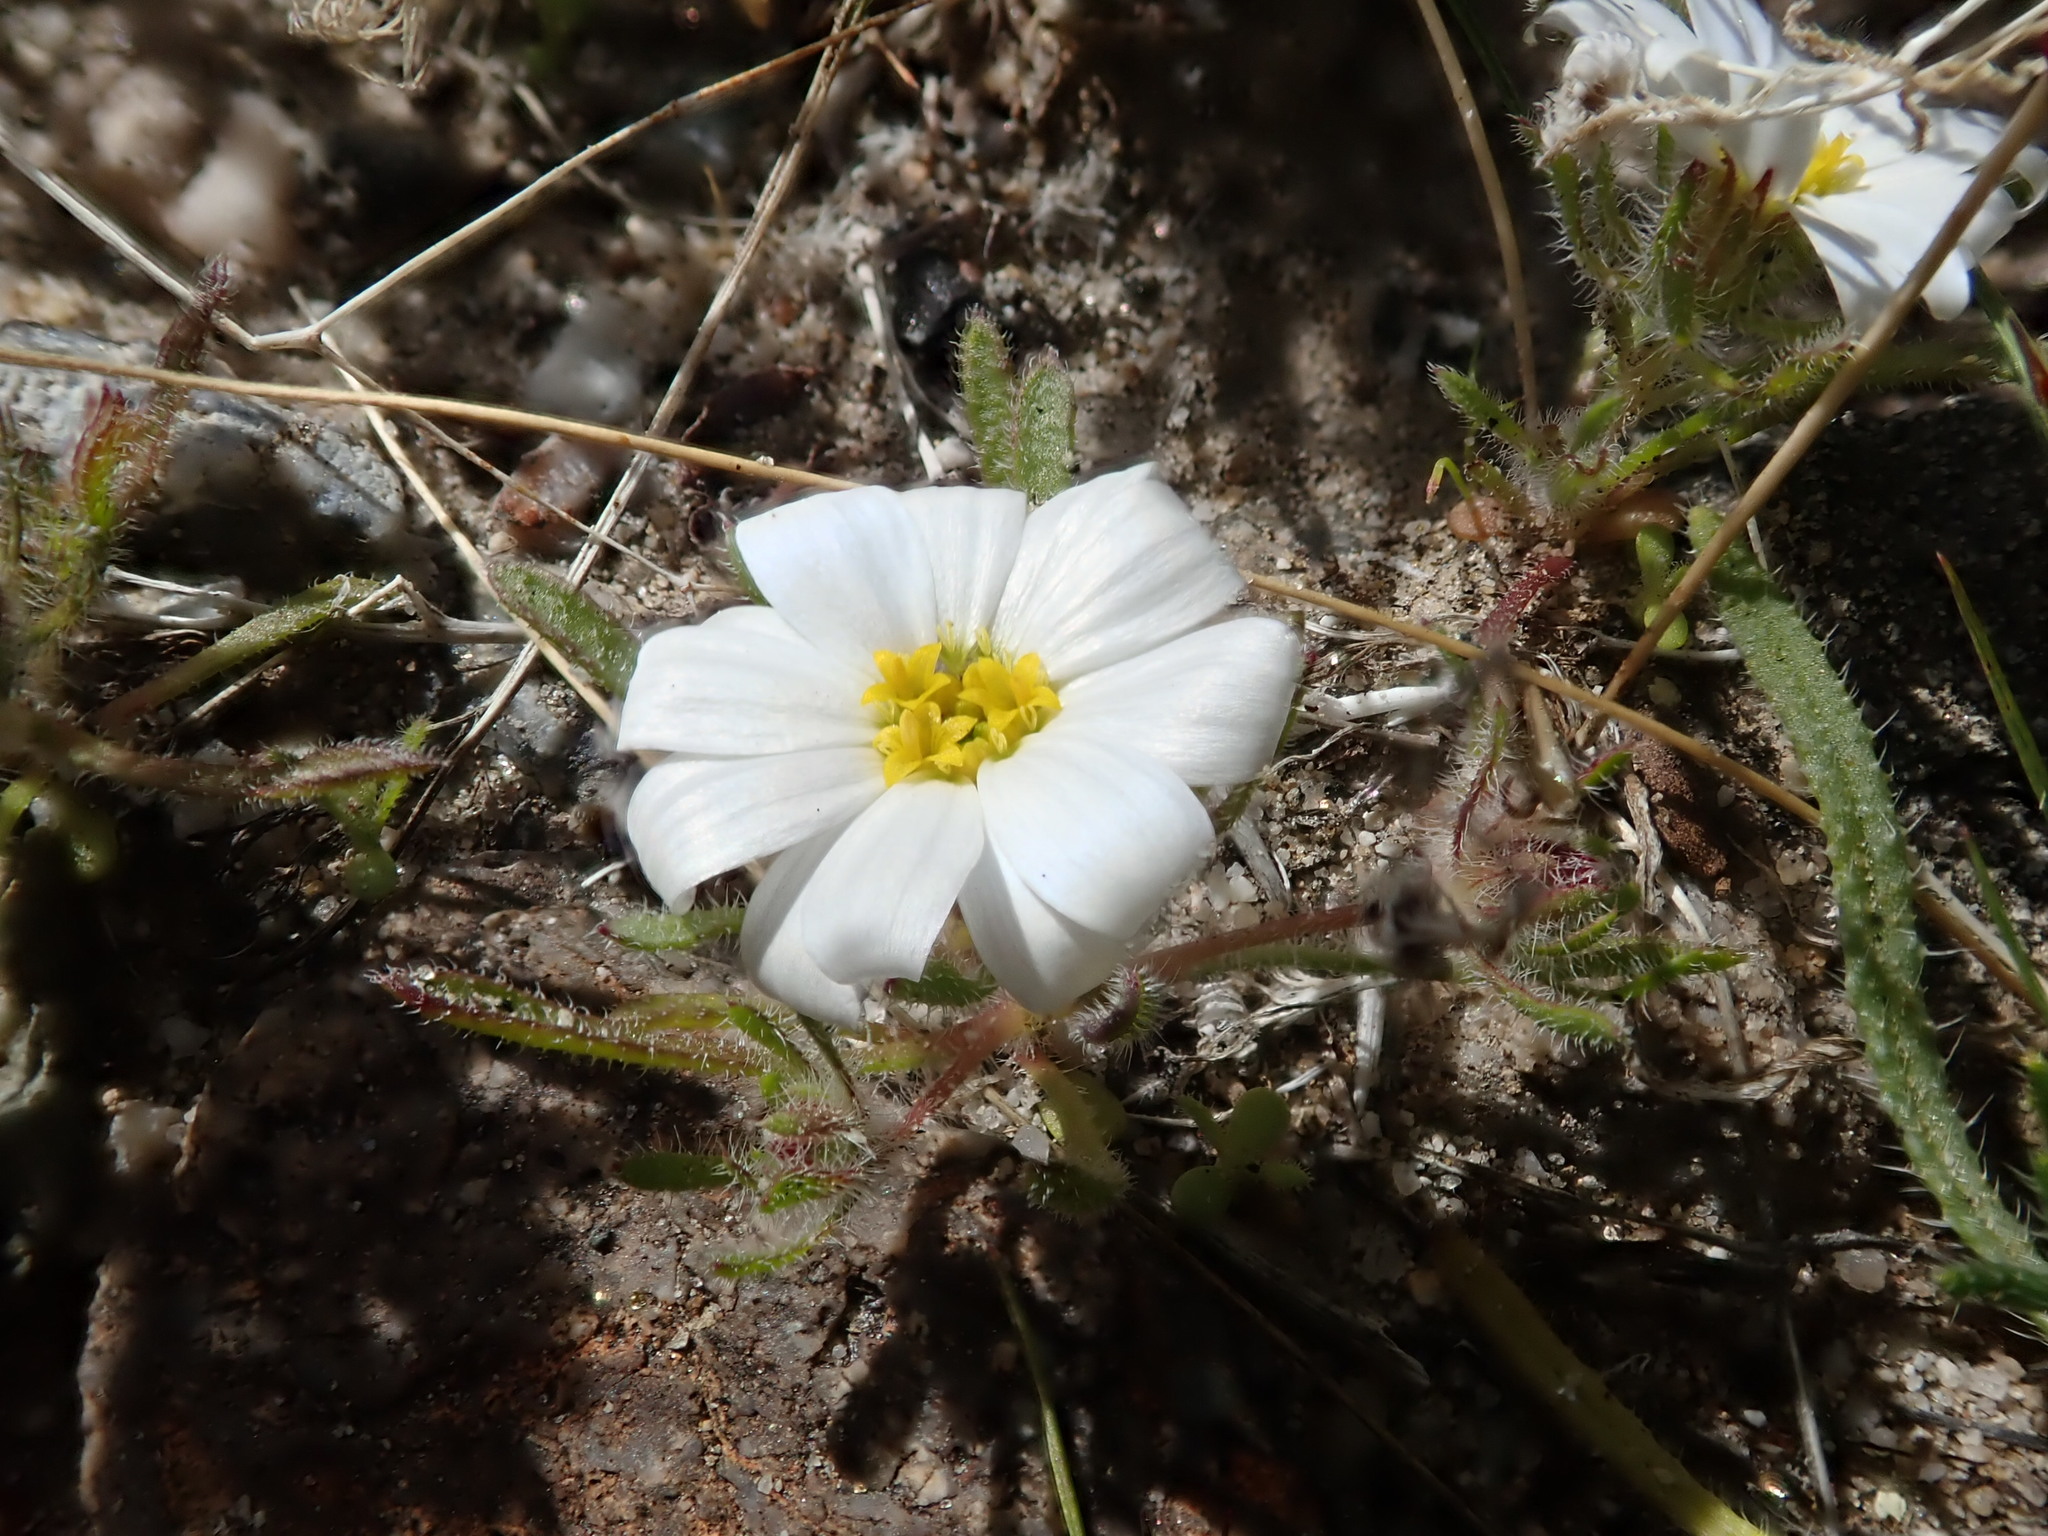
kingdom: Plantae
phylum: Tracheophyta
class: Magnoliopsida
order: Asterales
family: Asteraceae
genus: Monoptilon
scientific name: Monoptilon bellioides
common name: Bristly desertstar
